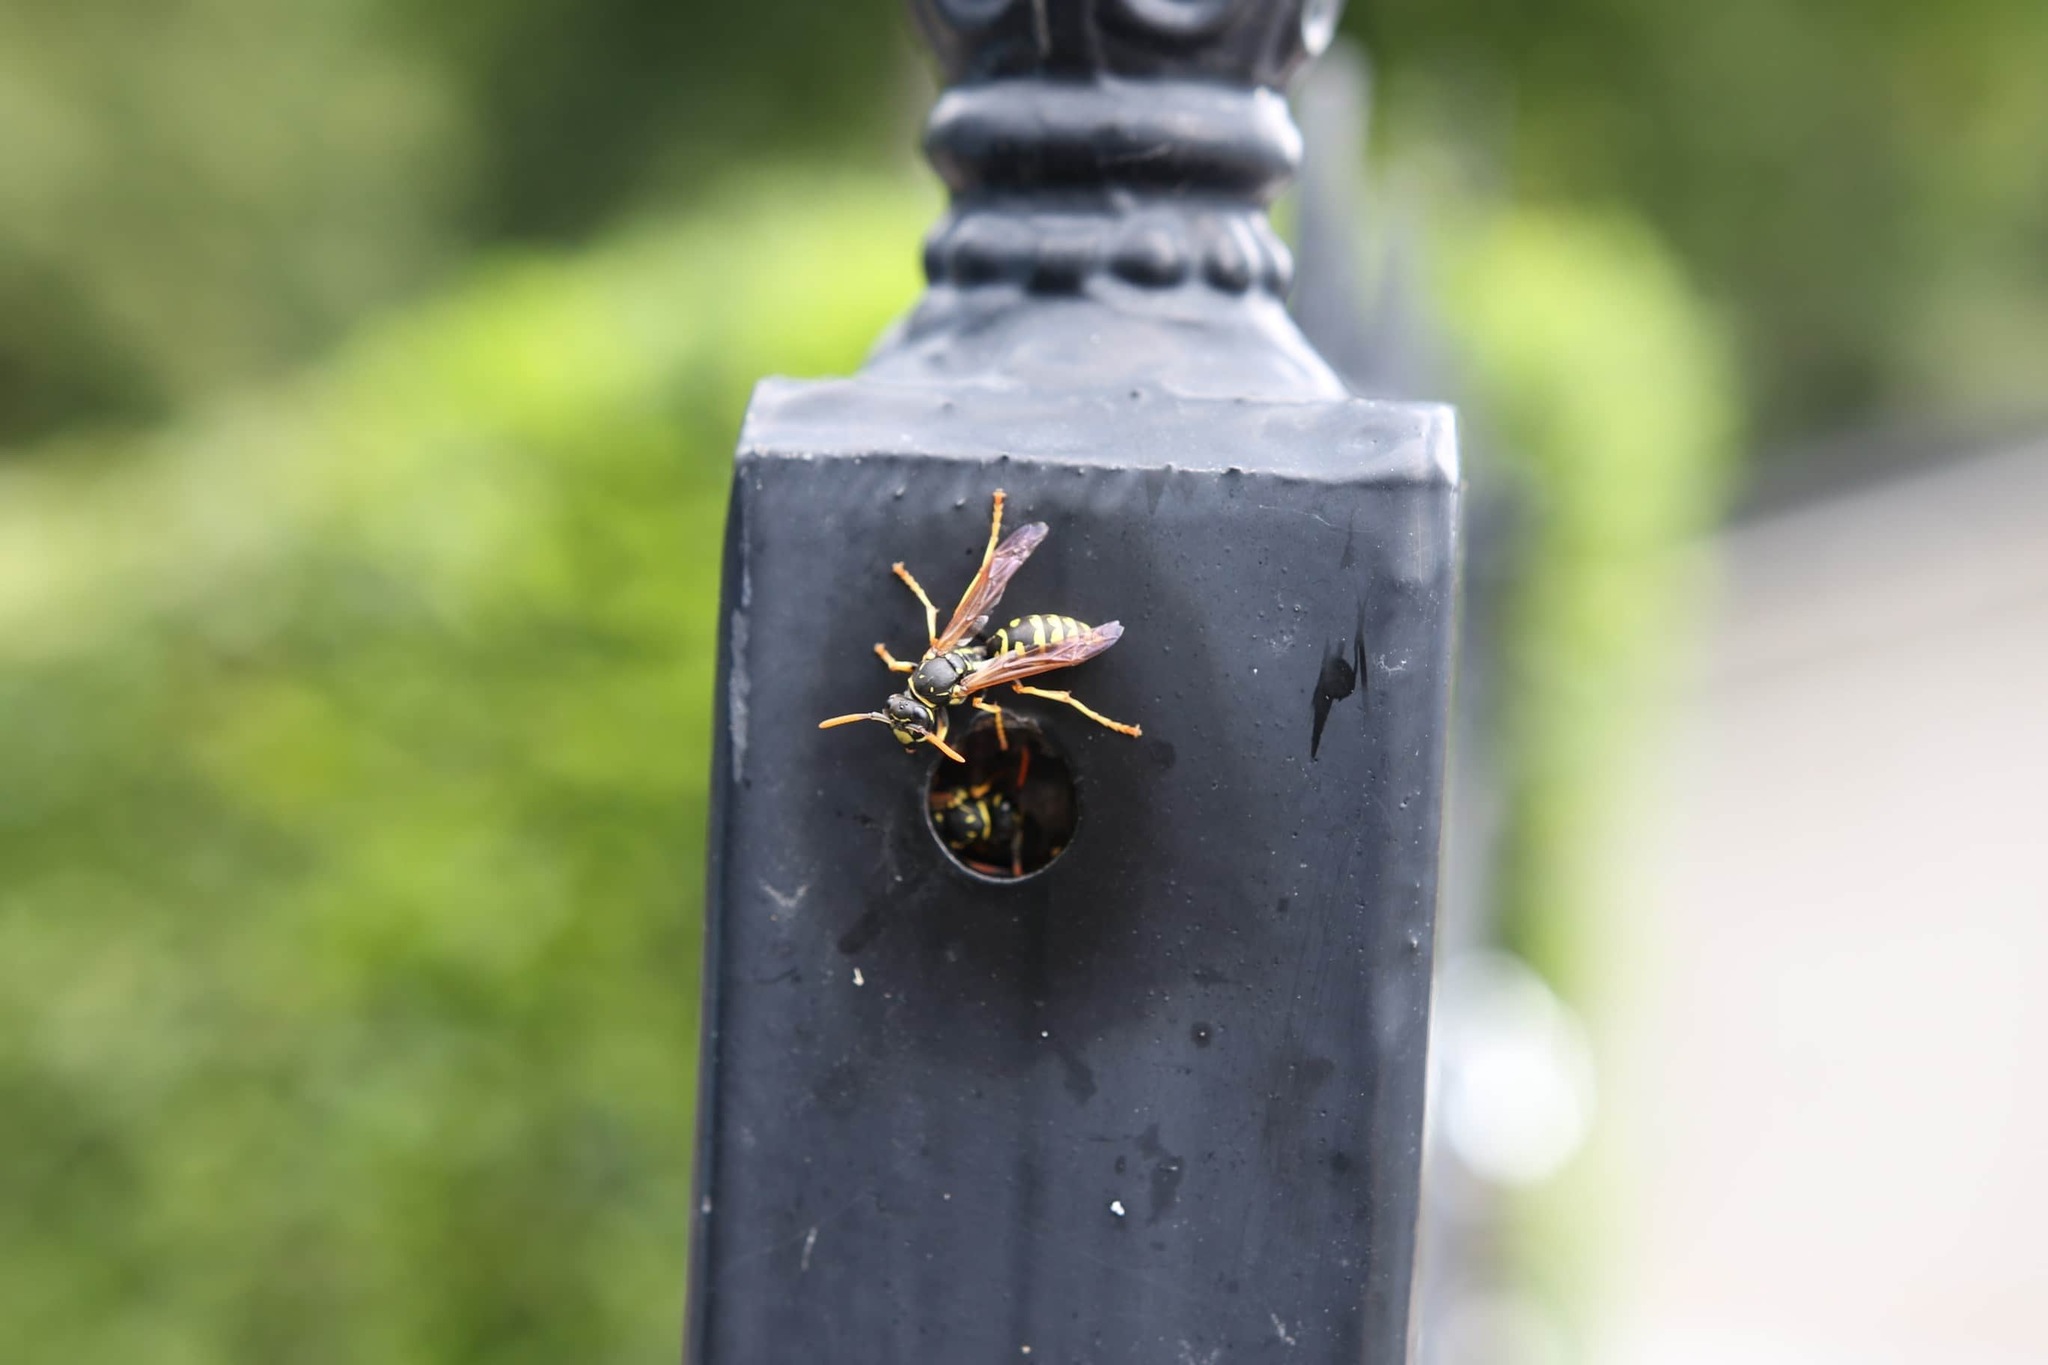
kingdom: Animalia
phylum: Arthropoda
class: Insecta
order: Hymenoptera
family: Eumenidae
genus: Polistes
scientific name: Polistes dominula
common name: Paper wasp
